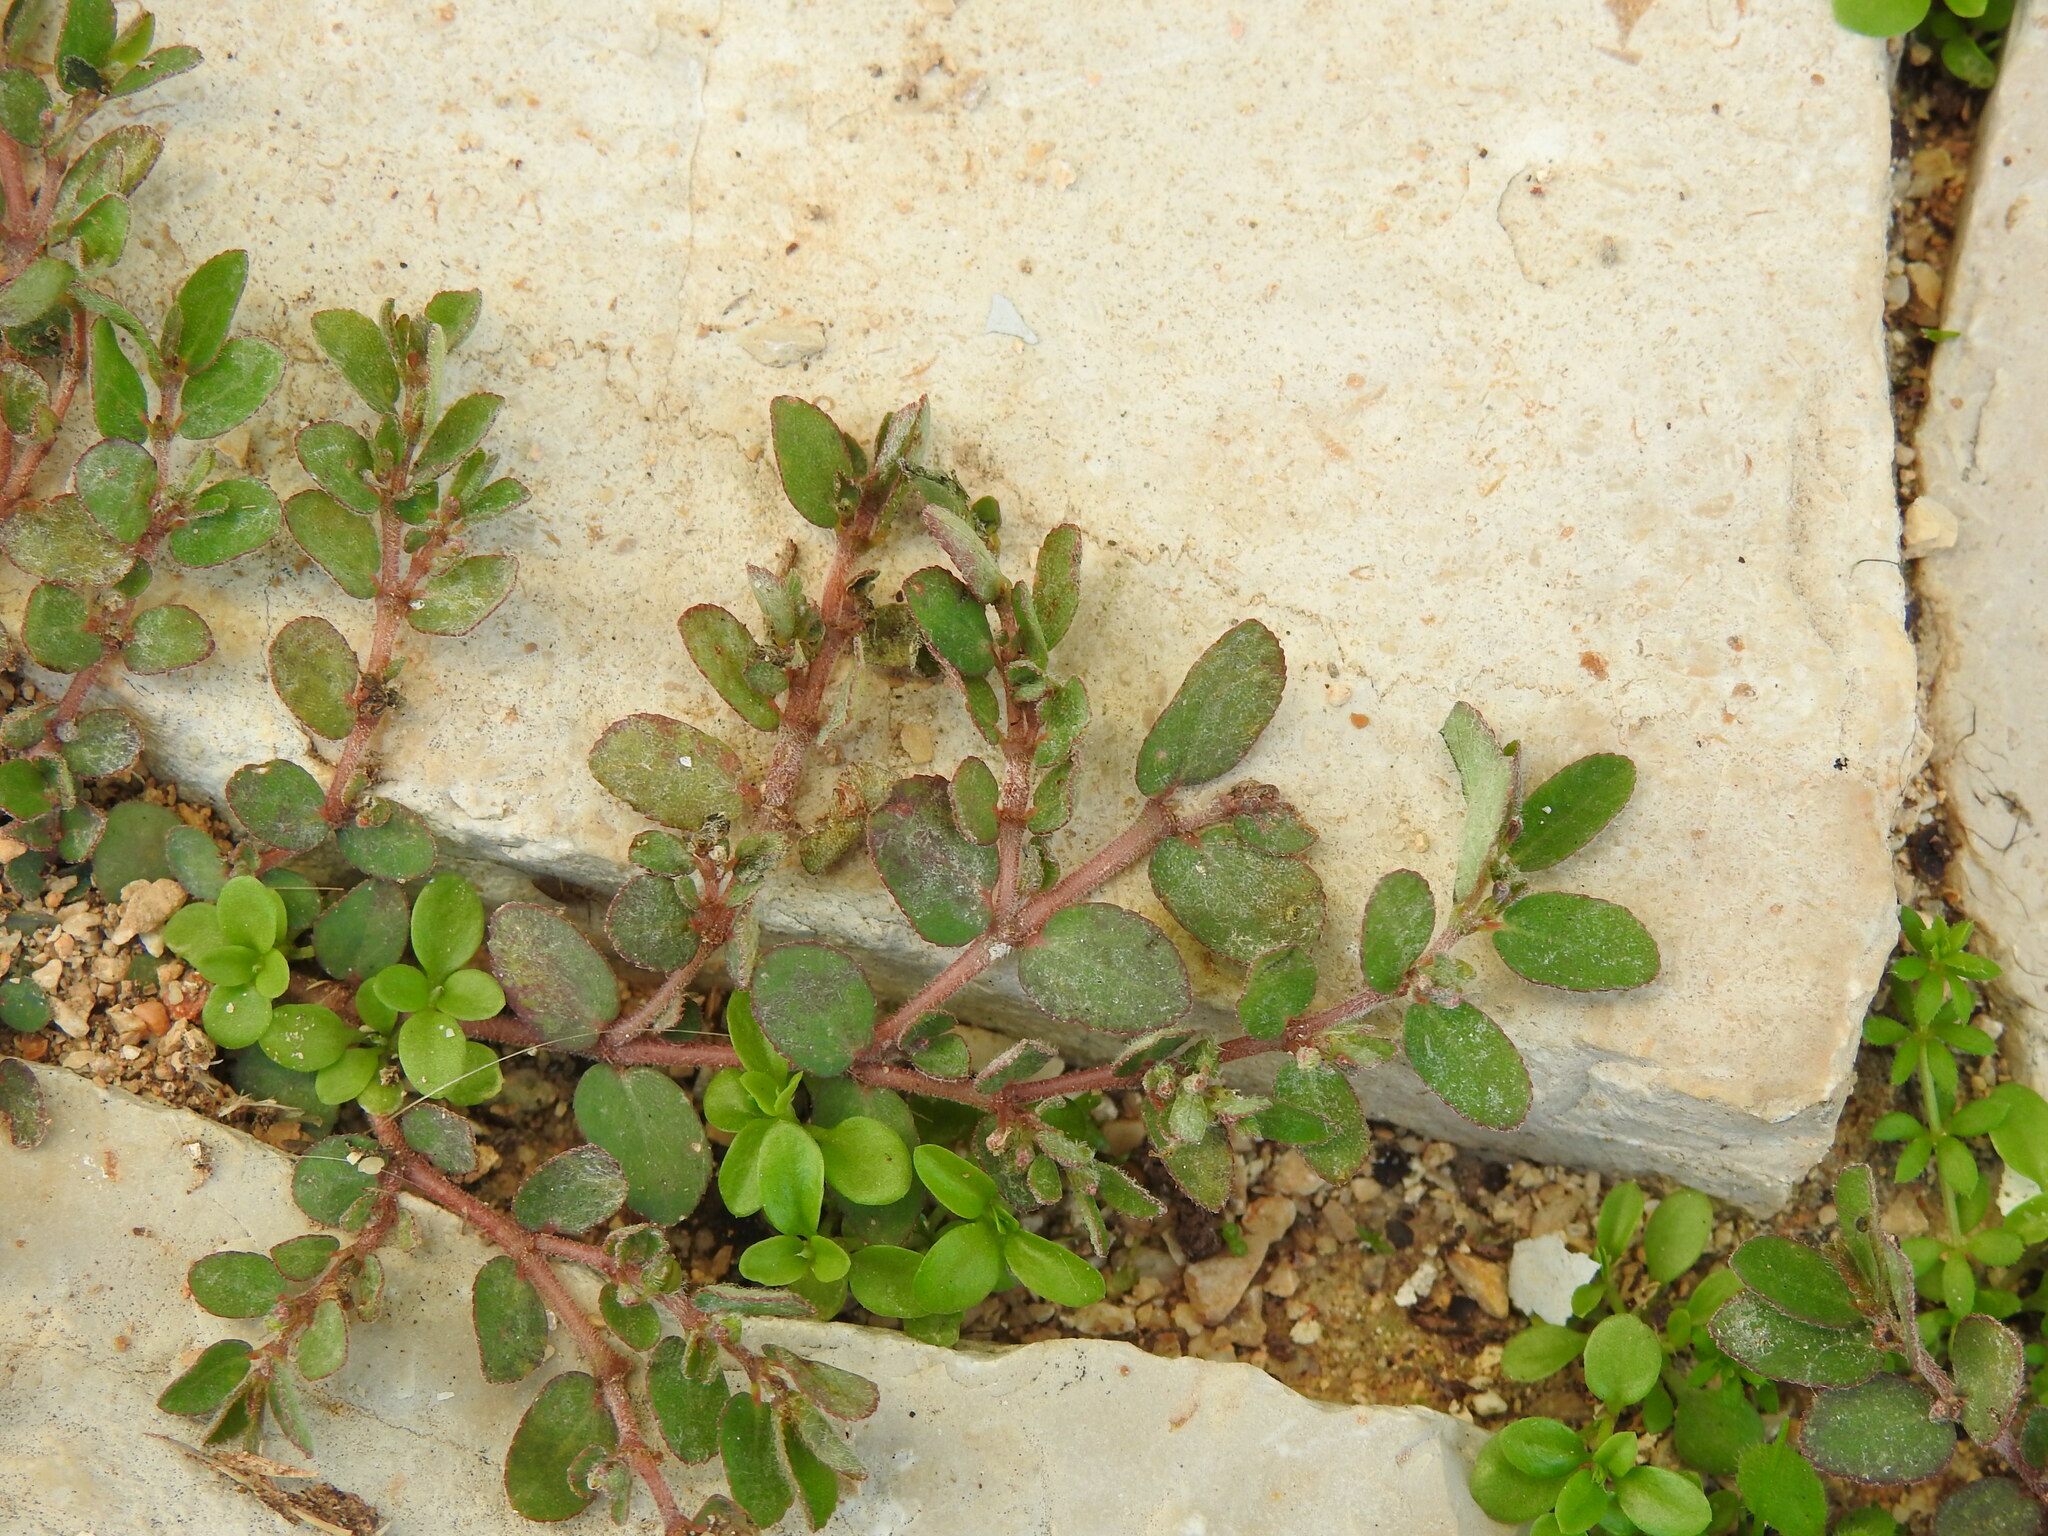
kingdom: Plantae
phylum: Tracheophyta
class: Magnoliopsida
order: Malpighiales
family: Euphorbiaceae
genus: Euphorbia
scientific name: Euphorbia prostrata
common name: Prostrate sandmat
